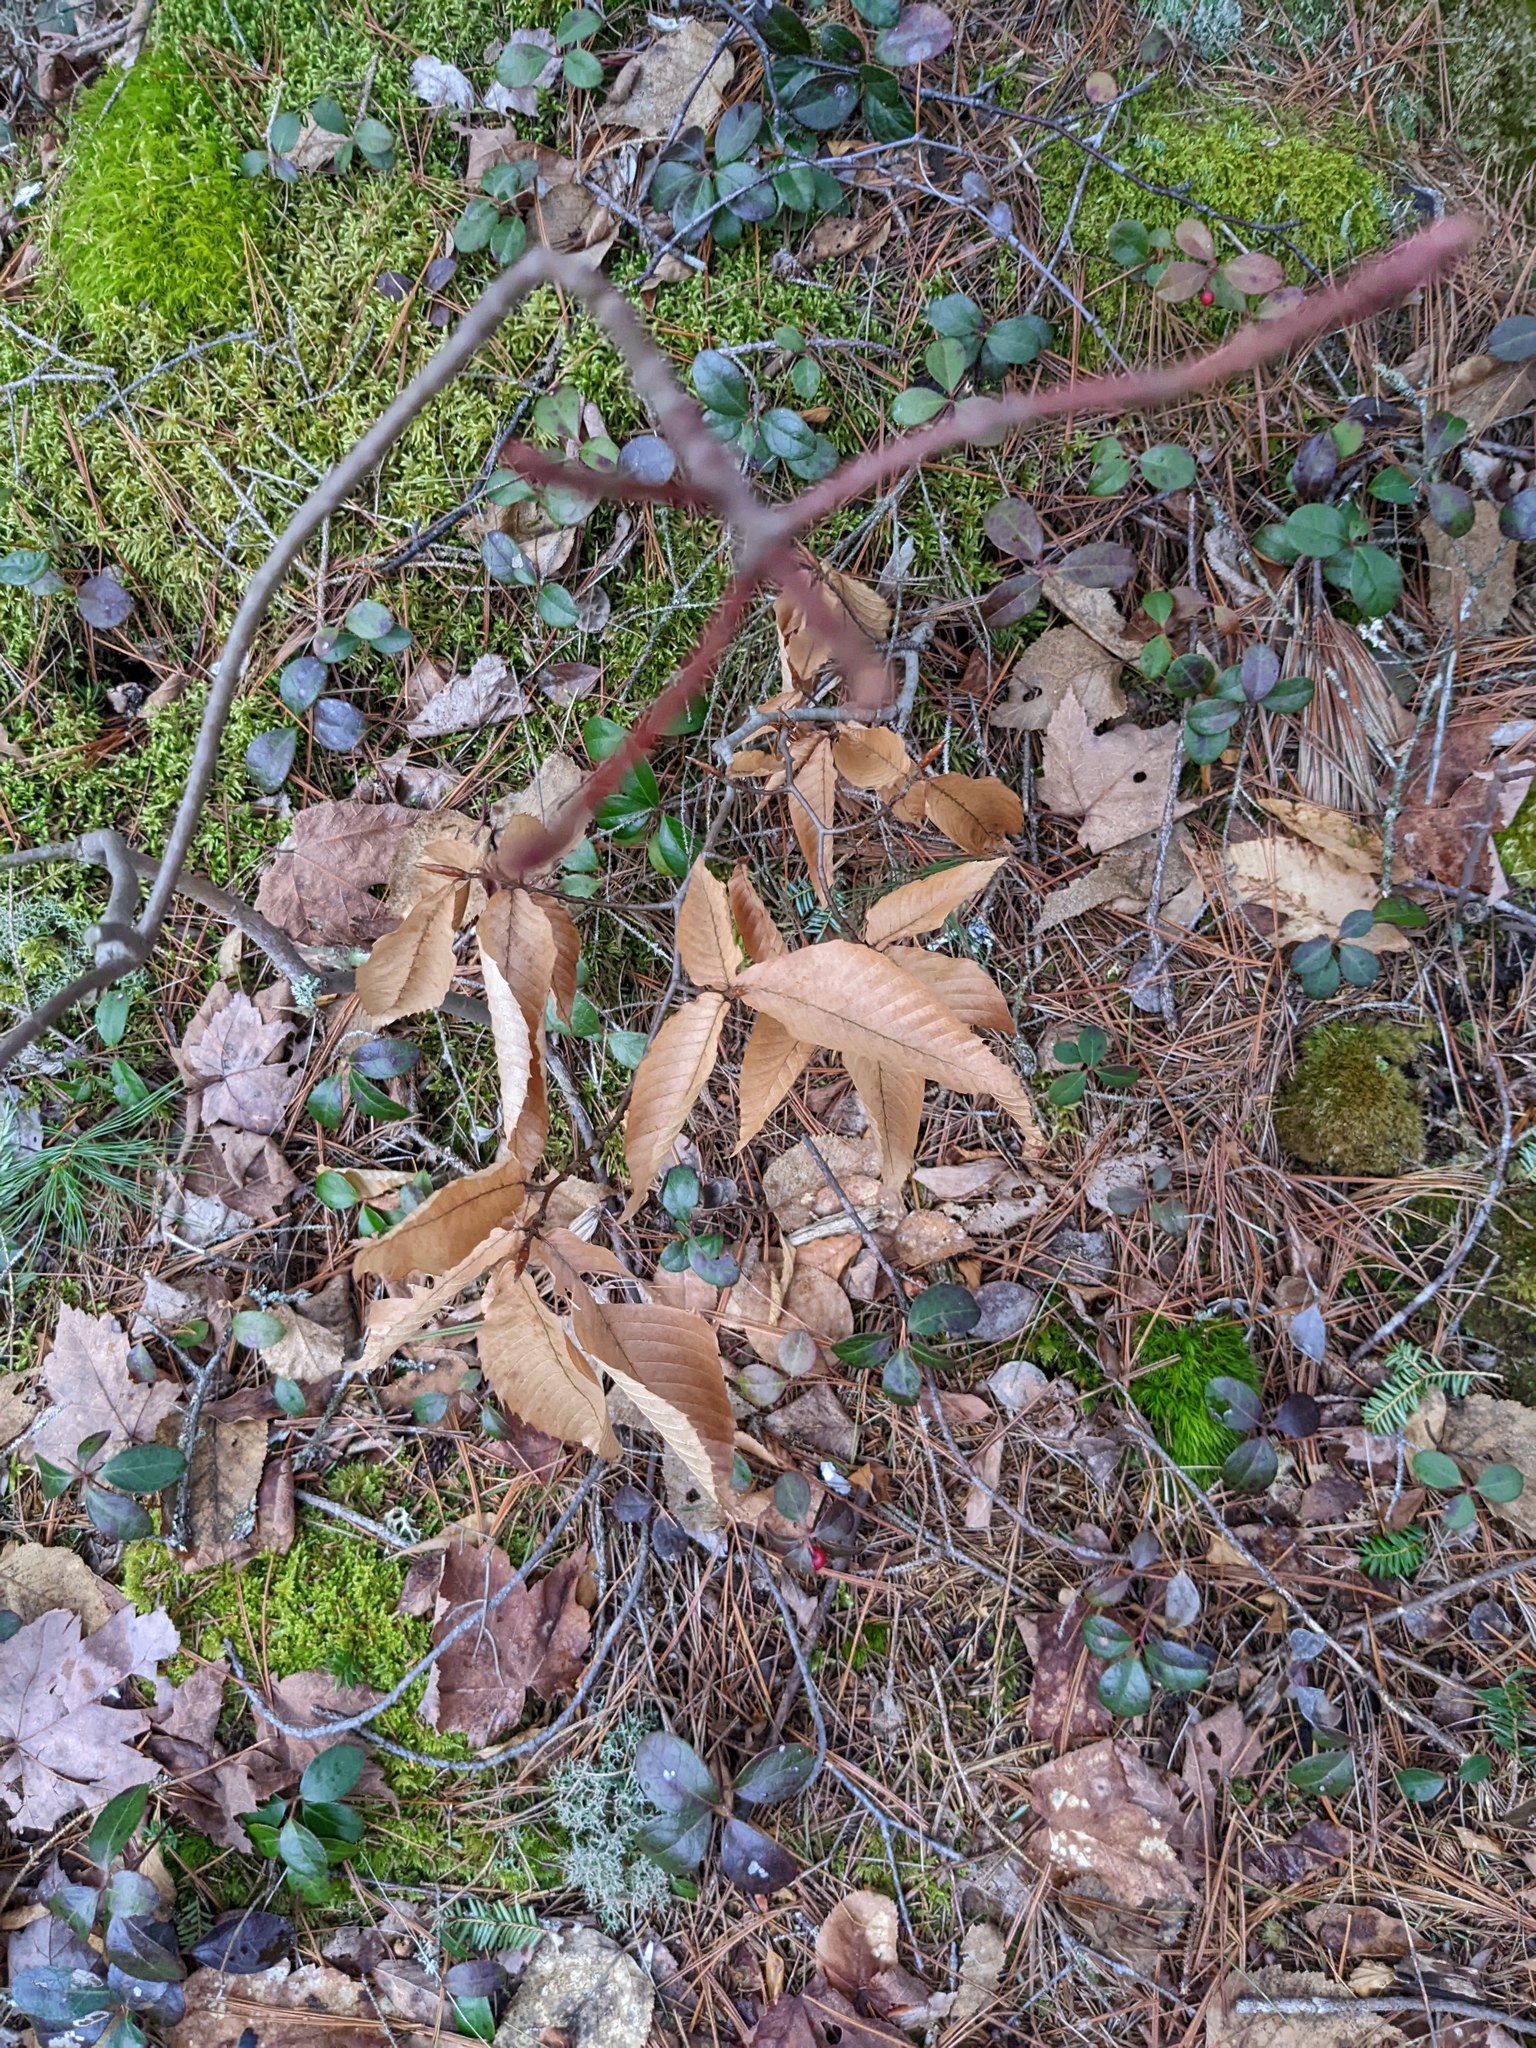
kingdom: Plantae
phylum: Tracheophyta
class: Magnoliopsida
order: Fagales
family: Fagaceae
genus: Fagus
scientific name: Fagus grandifolia
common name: American beech
